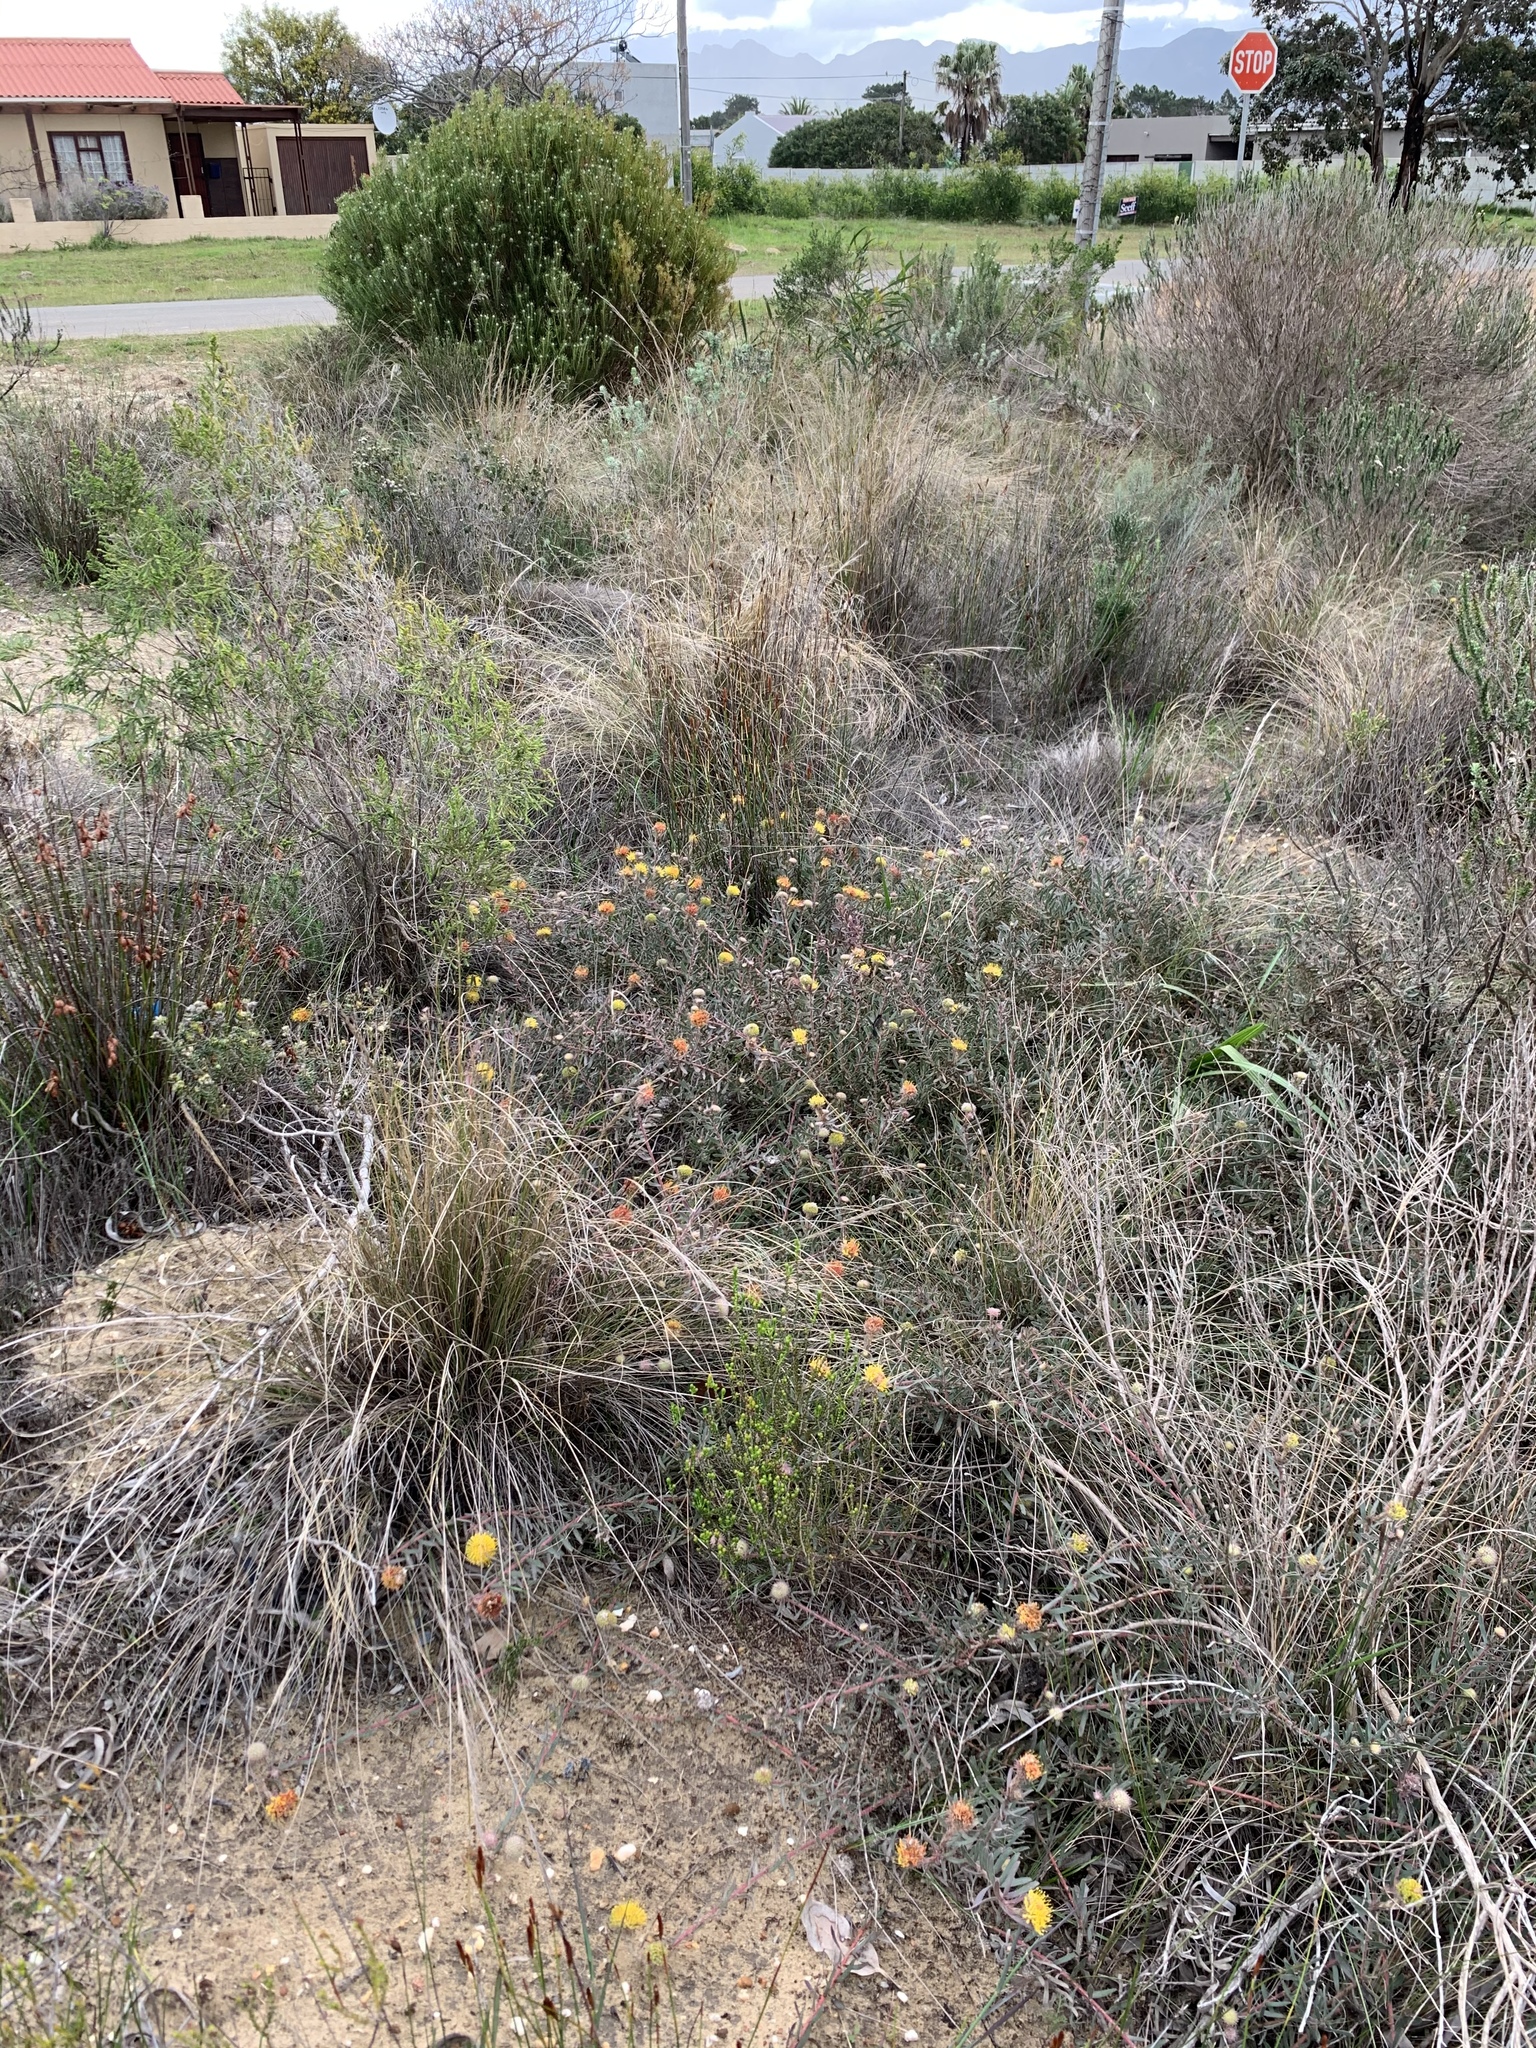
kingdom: Plantae
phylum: Tracheophyta
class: Magnoliopsida
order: Proteales
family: Proteaceae
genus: Leucospermum
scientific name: Leucospermum prostratum
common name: Yellow-trailing pincushion
